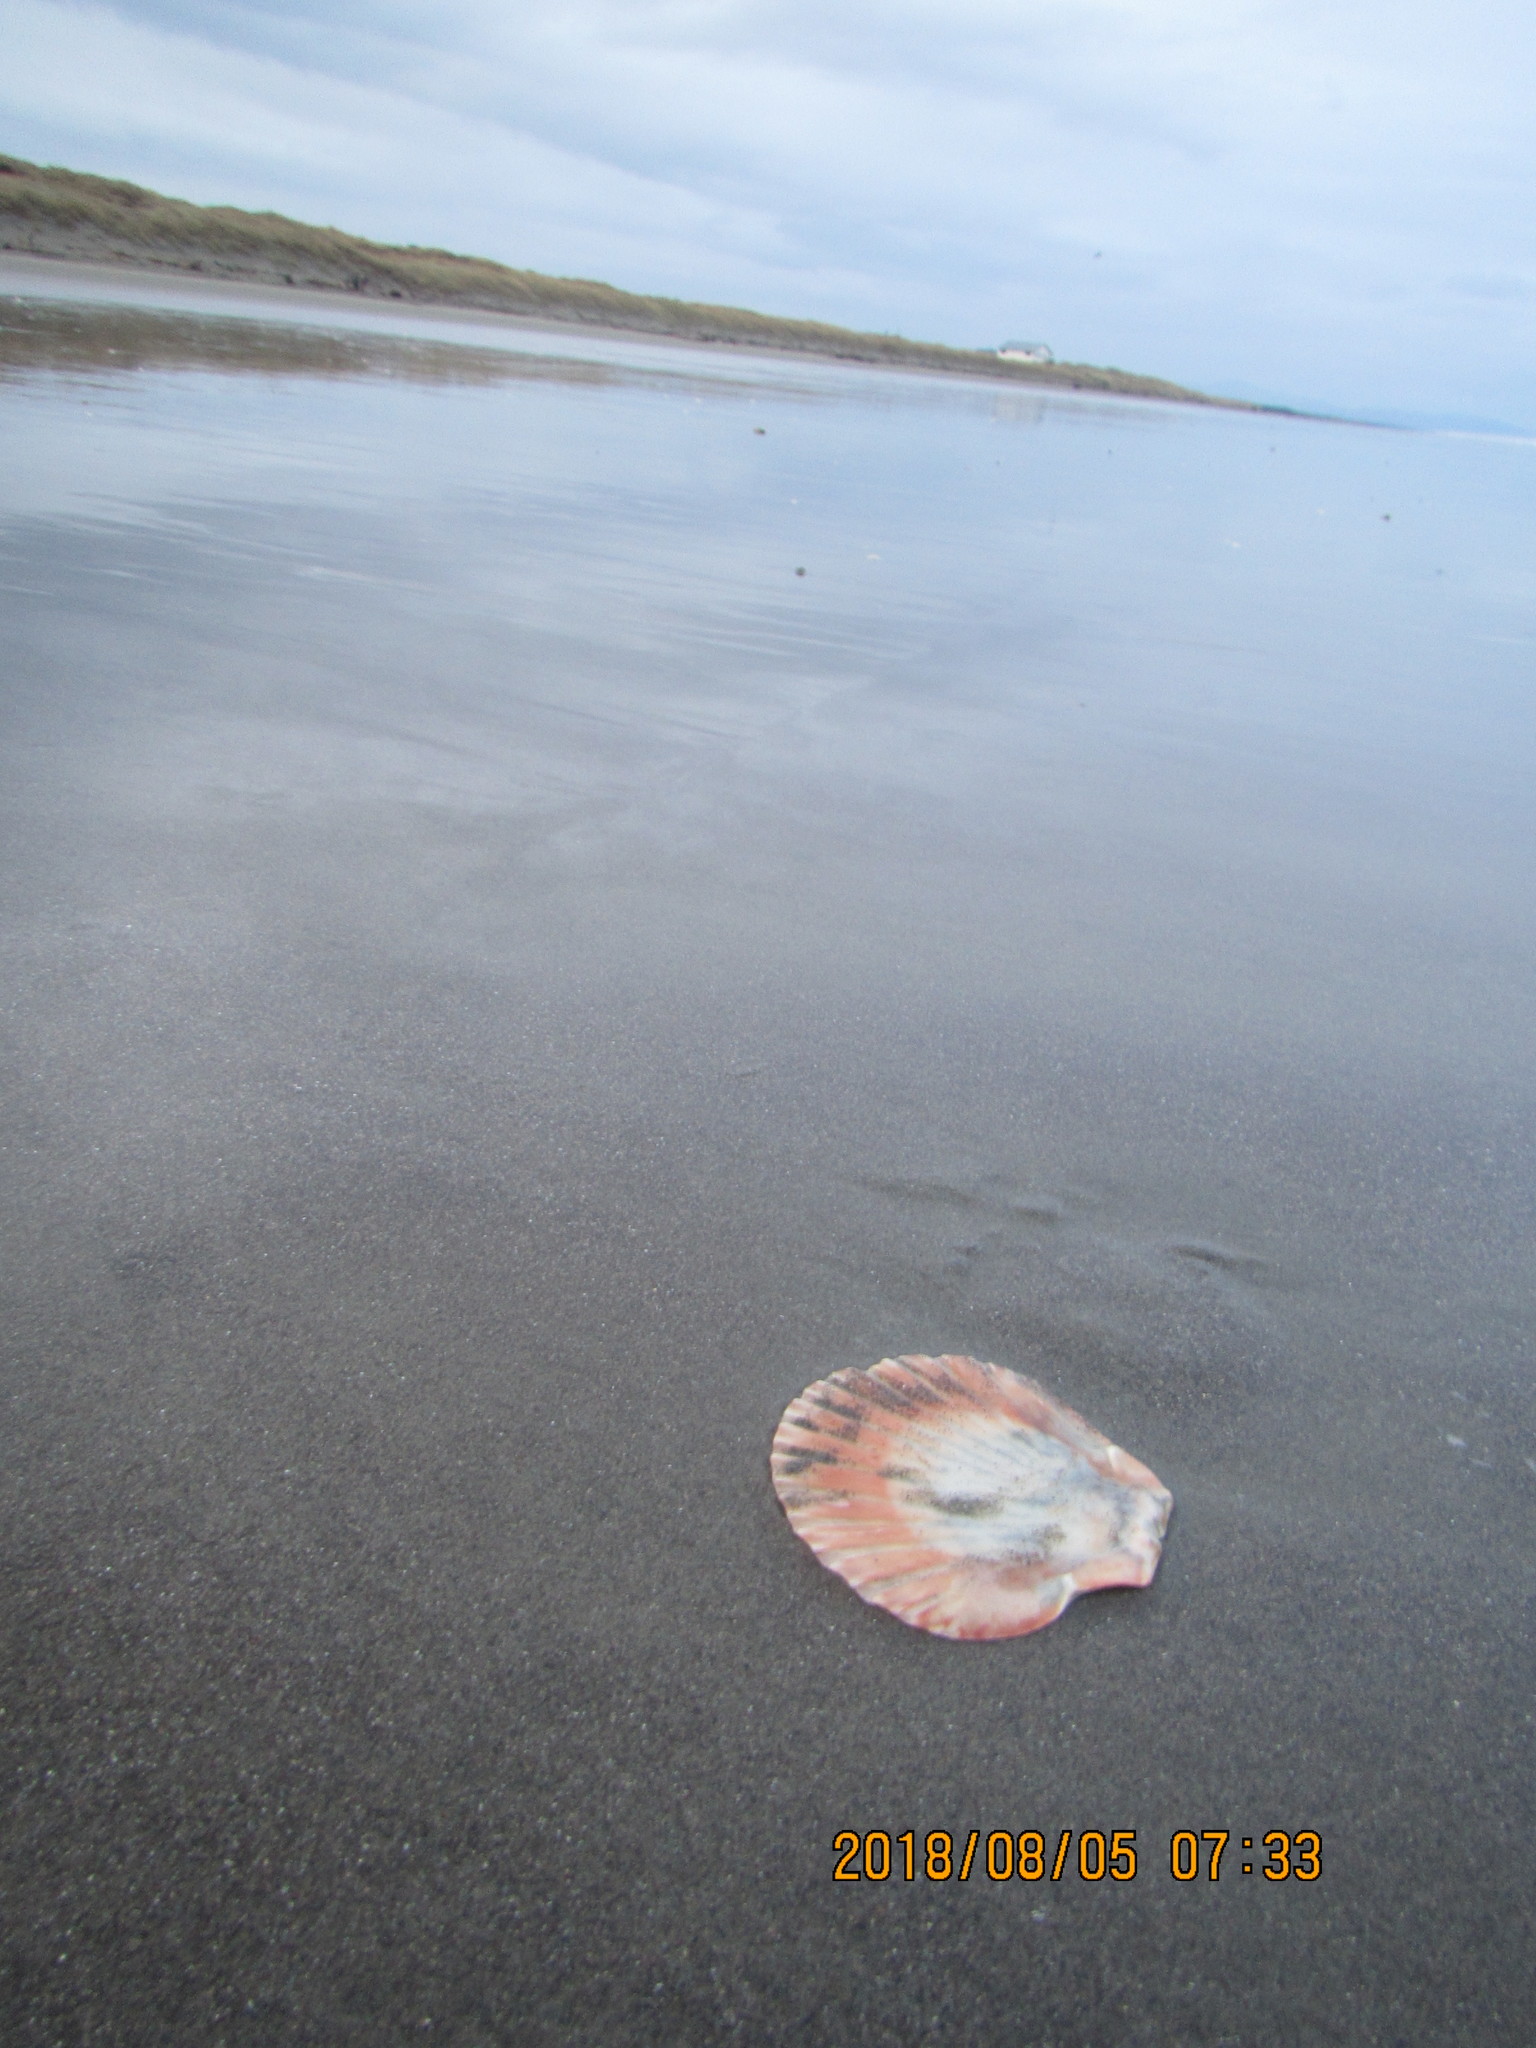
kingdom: Animalia
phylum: Mollusca
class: Bivalvia
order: Pectinida
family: Pectinidae
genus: Pecten
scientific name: Pecten novaezelandiae
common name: New zealand scallop
